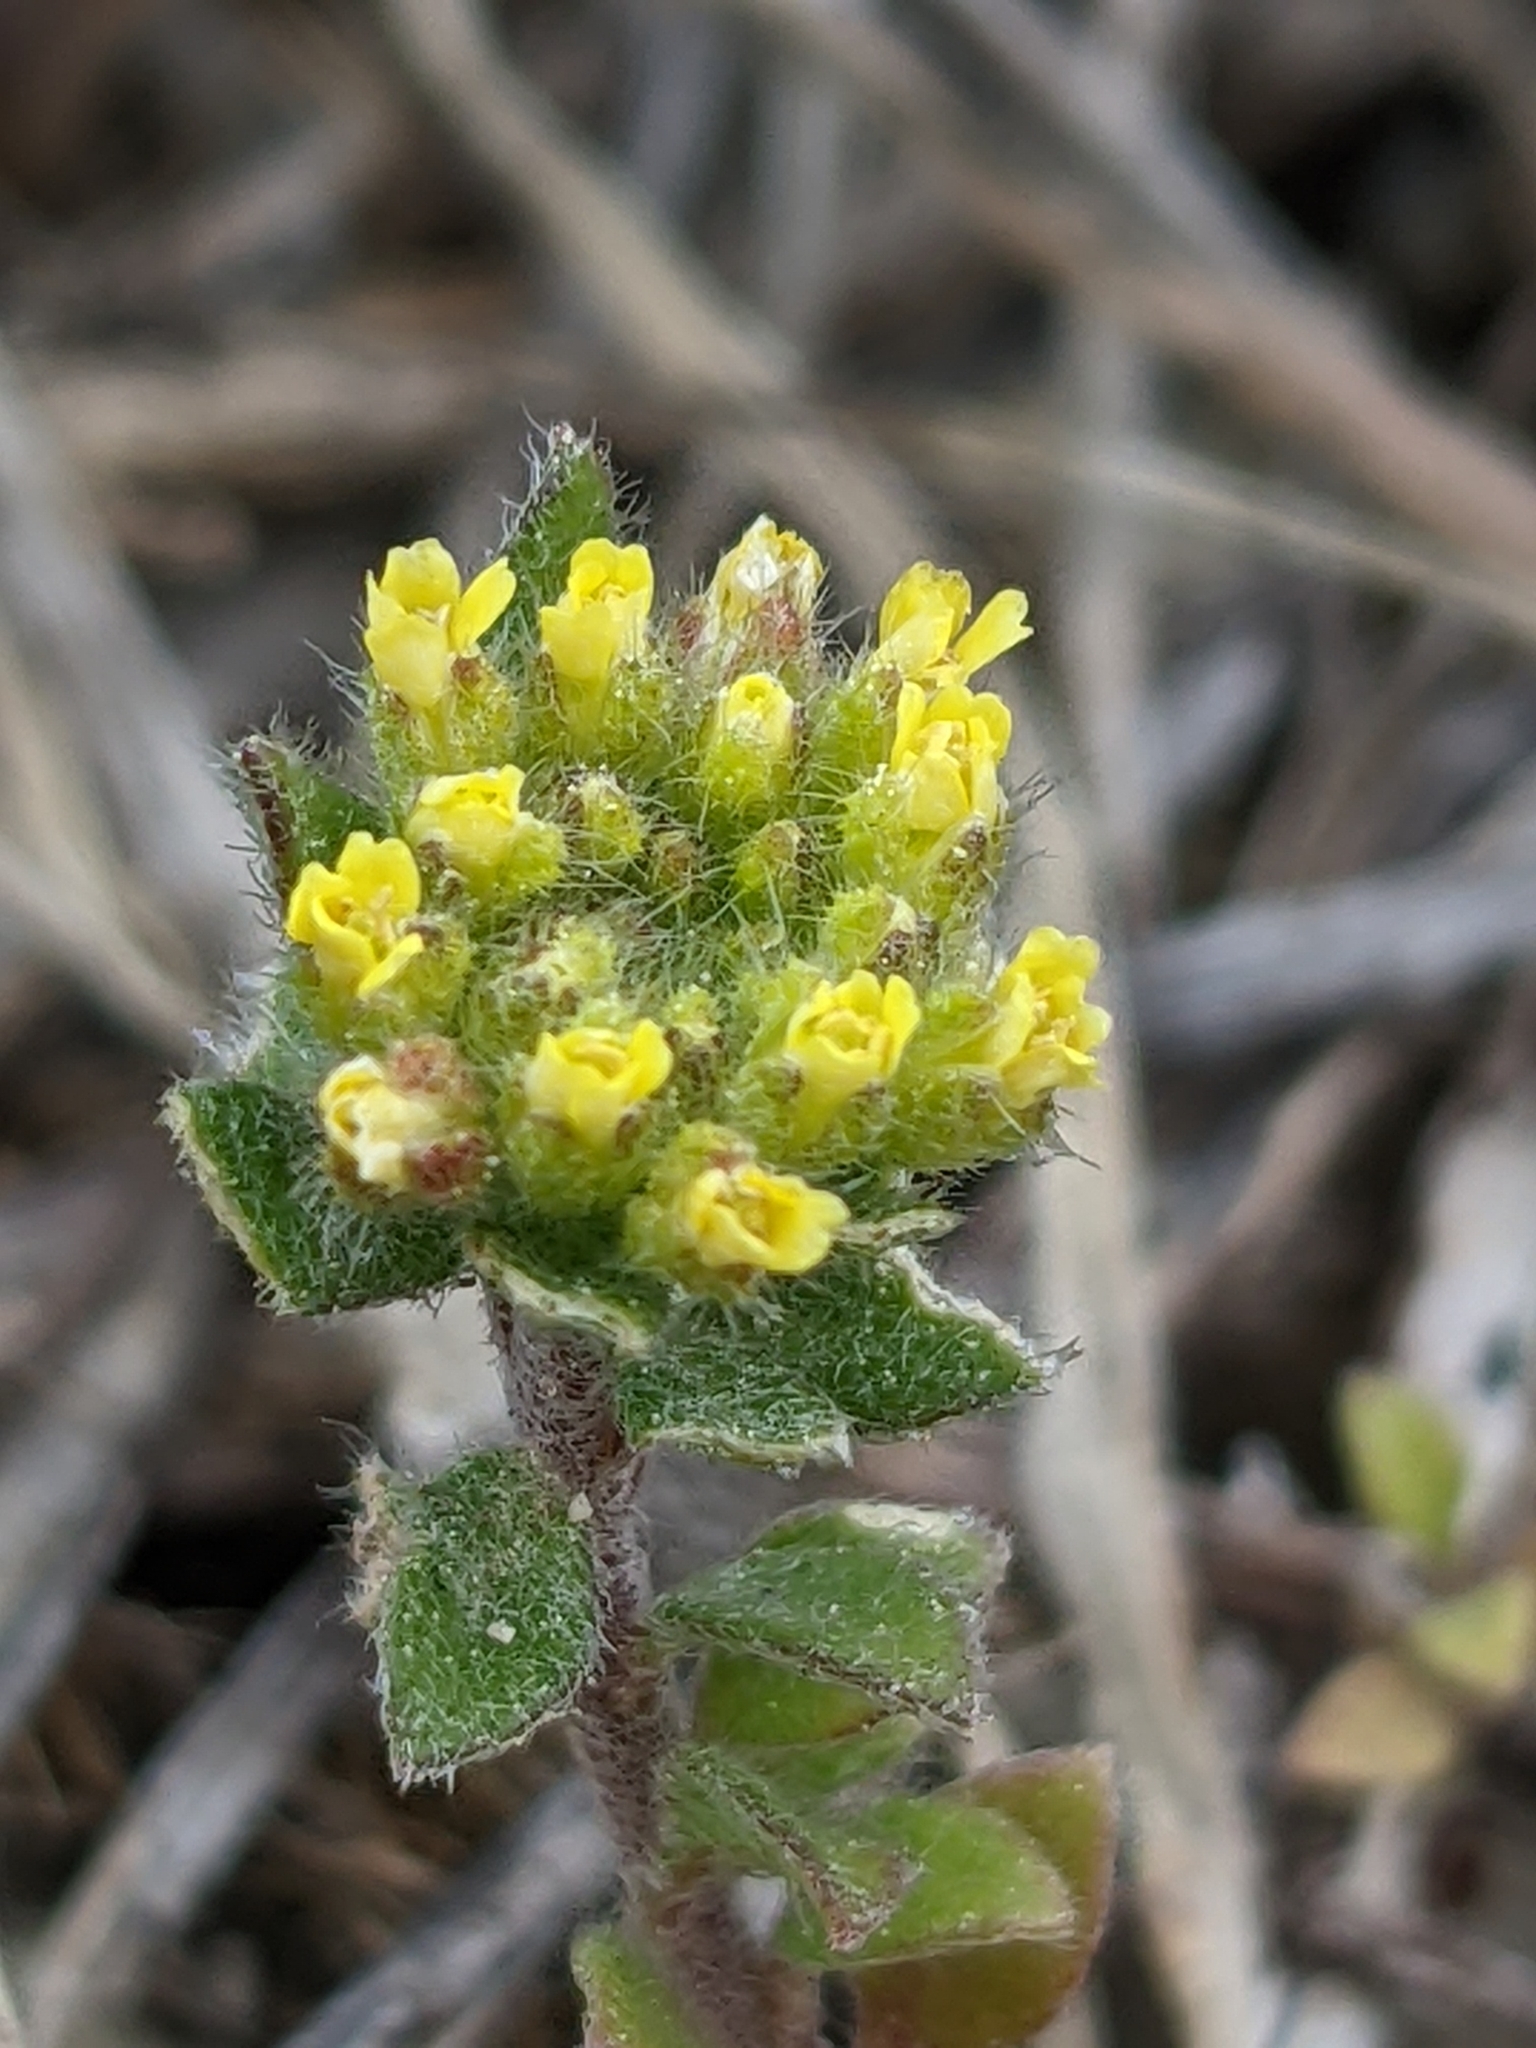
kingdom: Plantae
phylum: Tracheophyta
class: Magnoliopsida
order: Brassicales
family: Brassicaceae
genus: Alyssum
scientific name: Alyssum alyssoides
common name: Small alison
